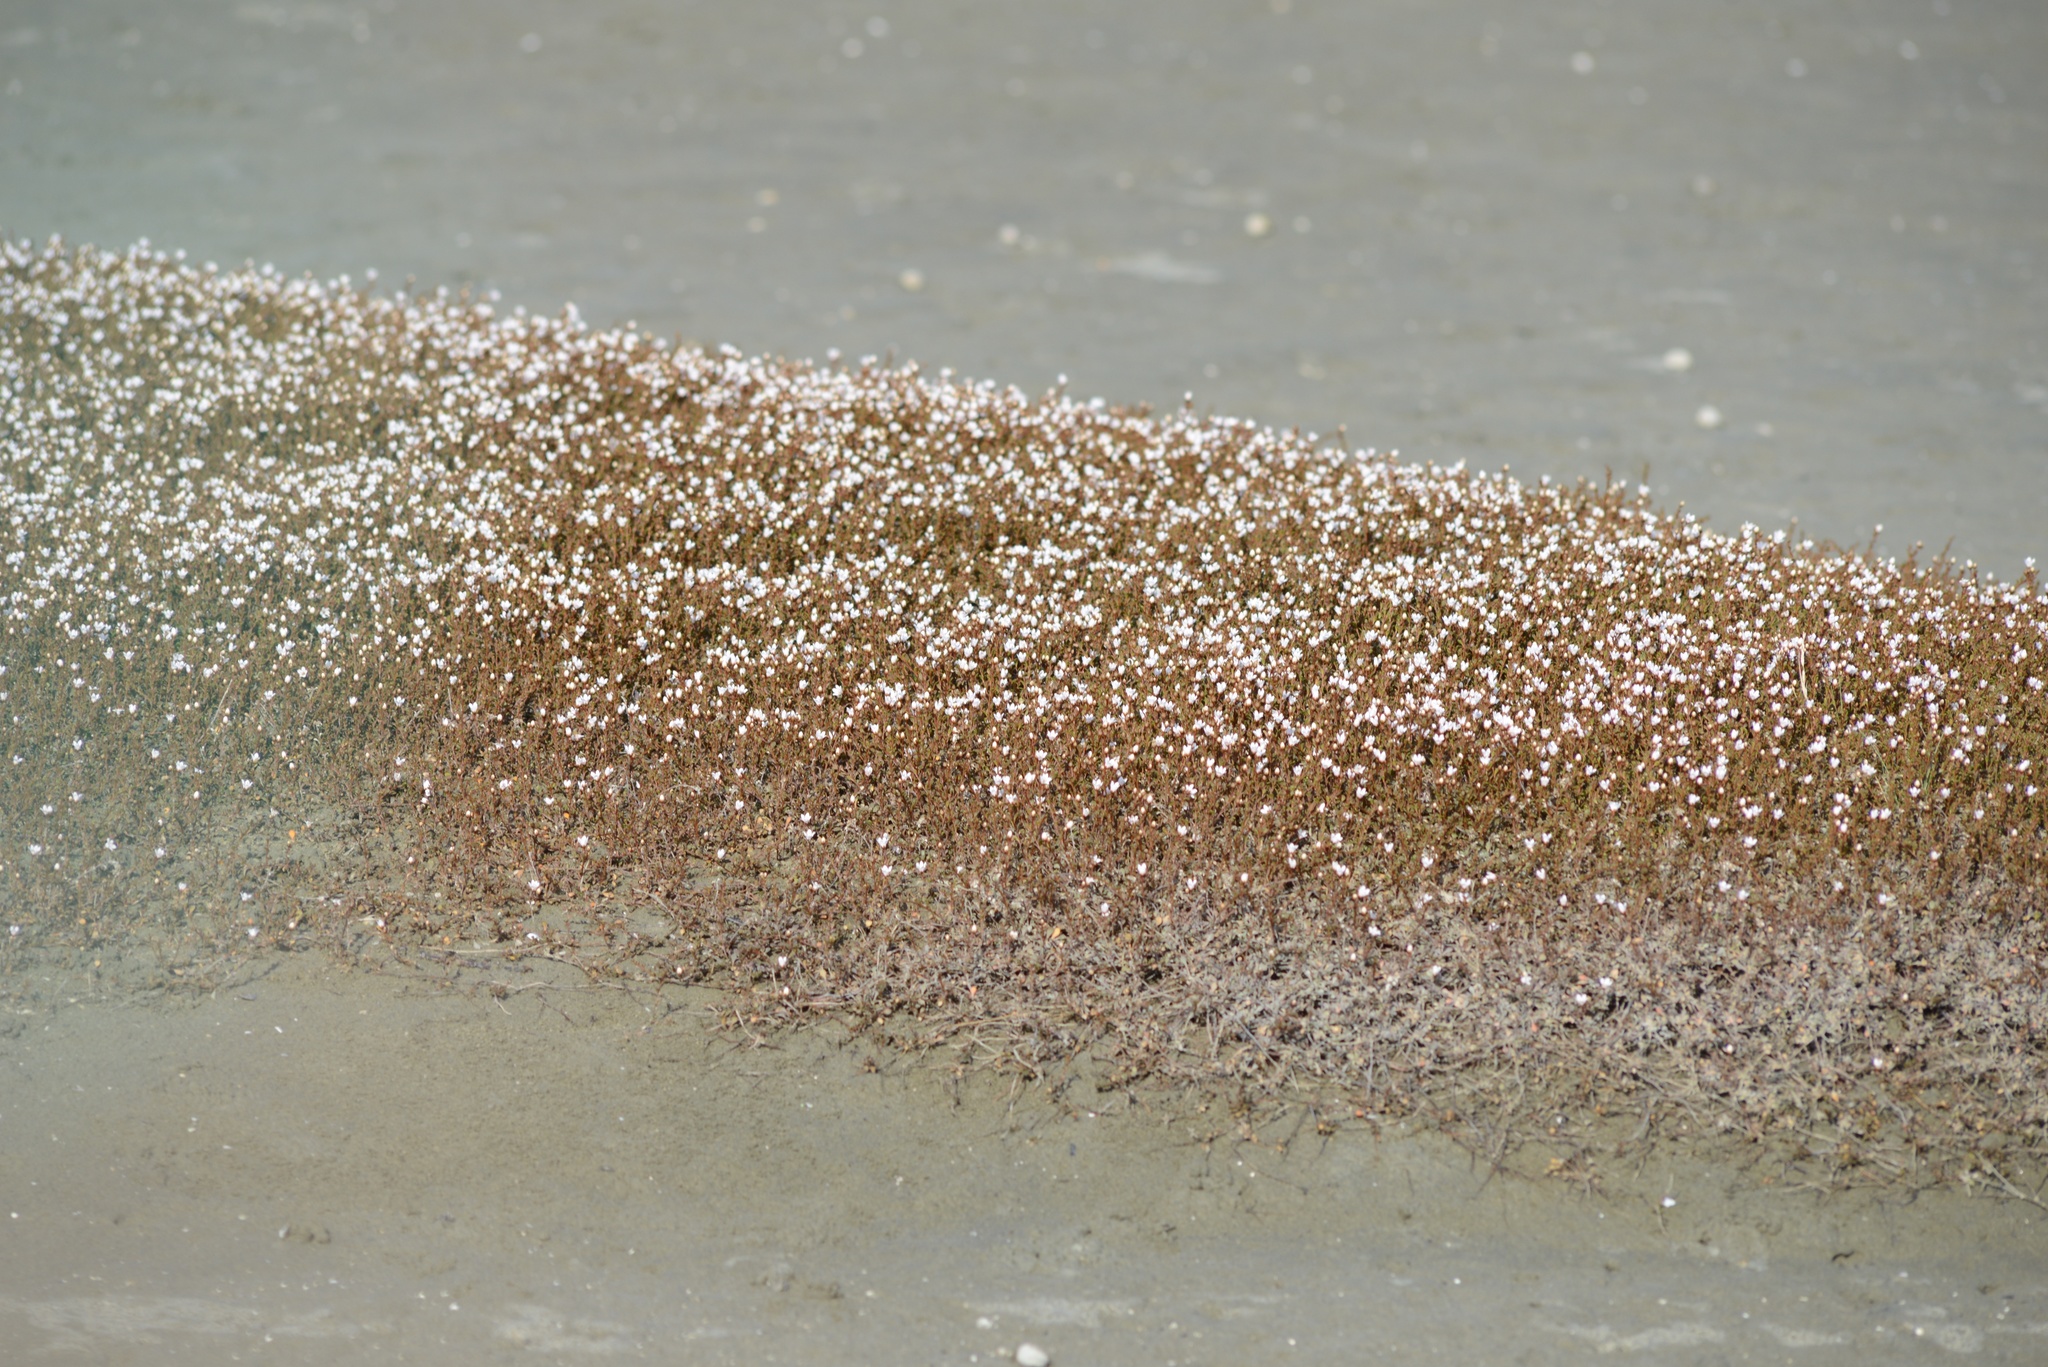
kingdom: Plantae
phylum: Tracheophyta
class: Magnoliopsida
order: Ericales
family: Primulaceae
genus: Samolus
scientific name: Samolus repens
